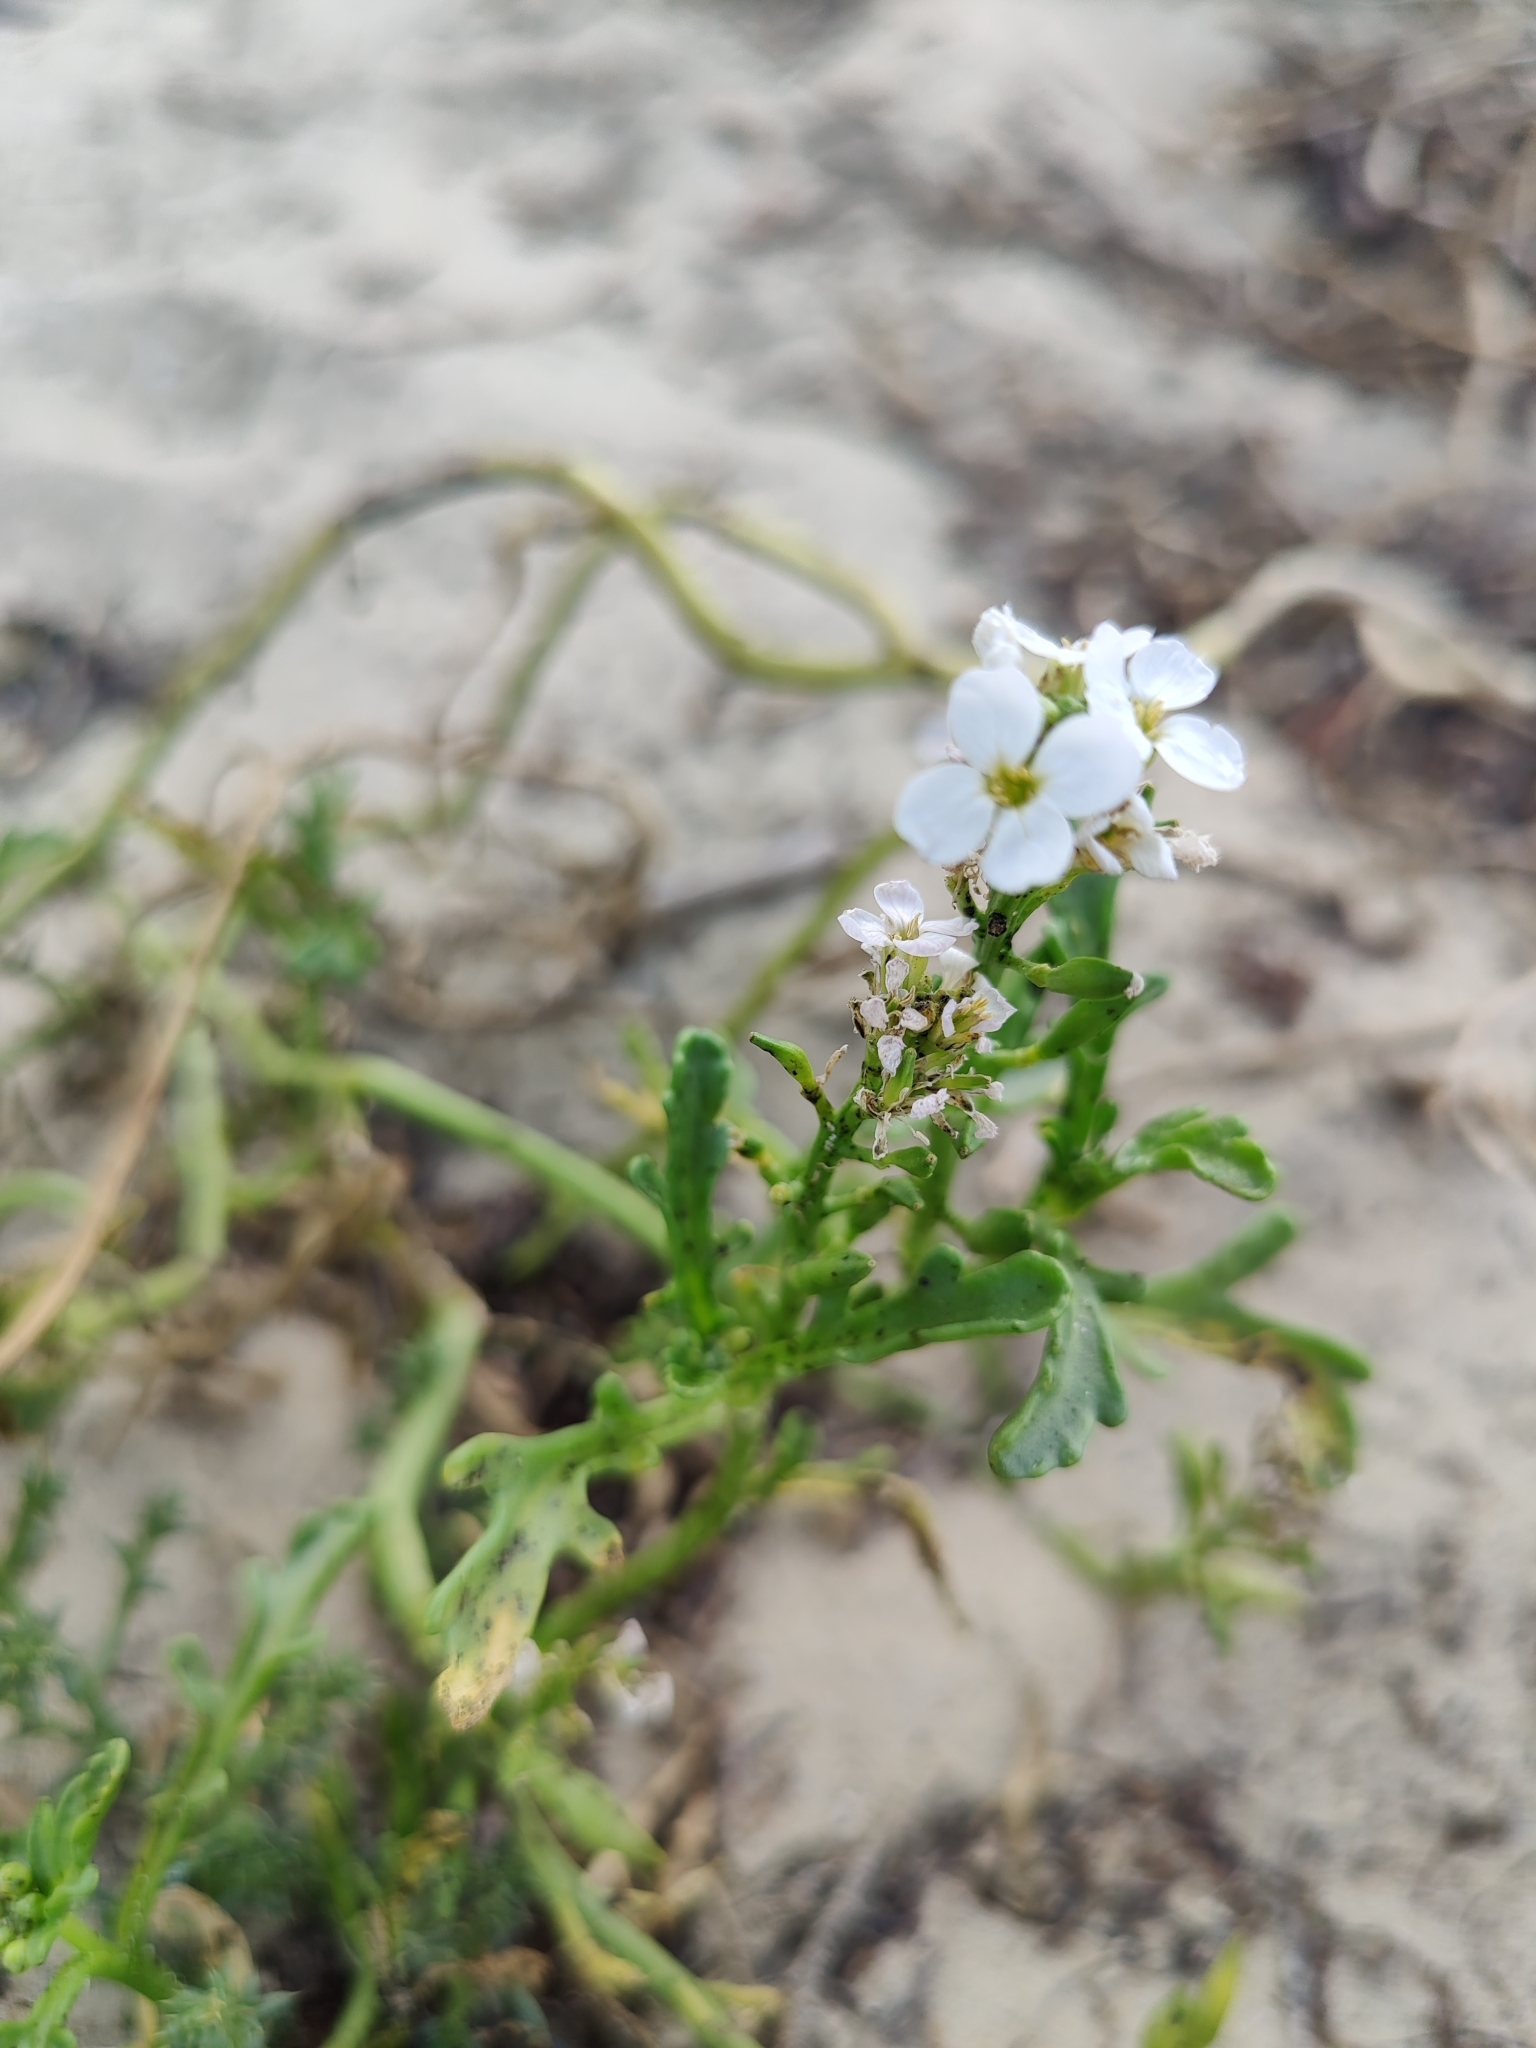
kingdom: Plantae
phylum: Tracheophyta
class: Magnoliopsida
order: Brassicales
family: Brassicaceae
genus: Cakile
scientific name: Cakile maritima
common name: Sea rocket
